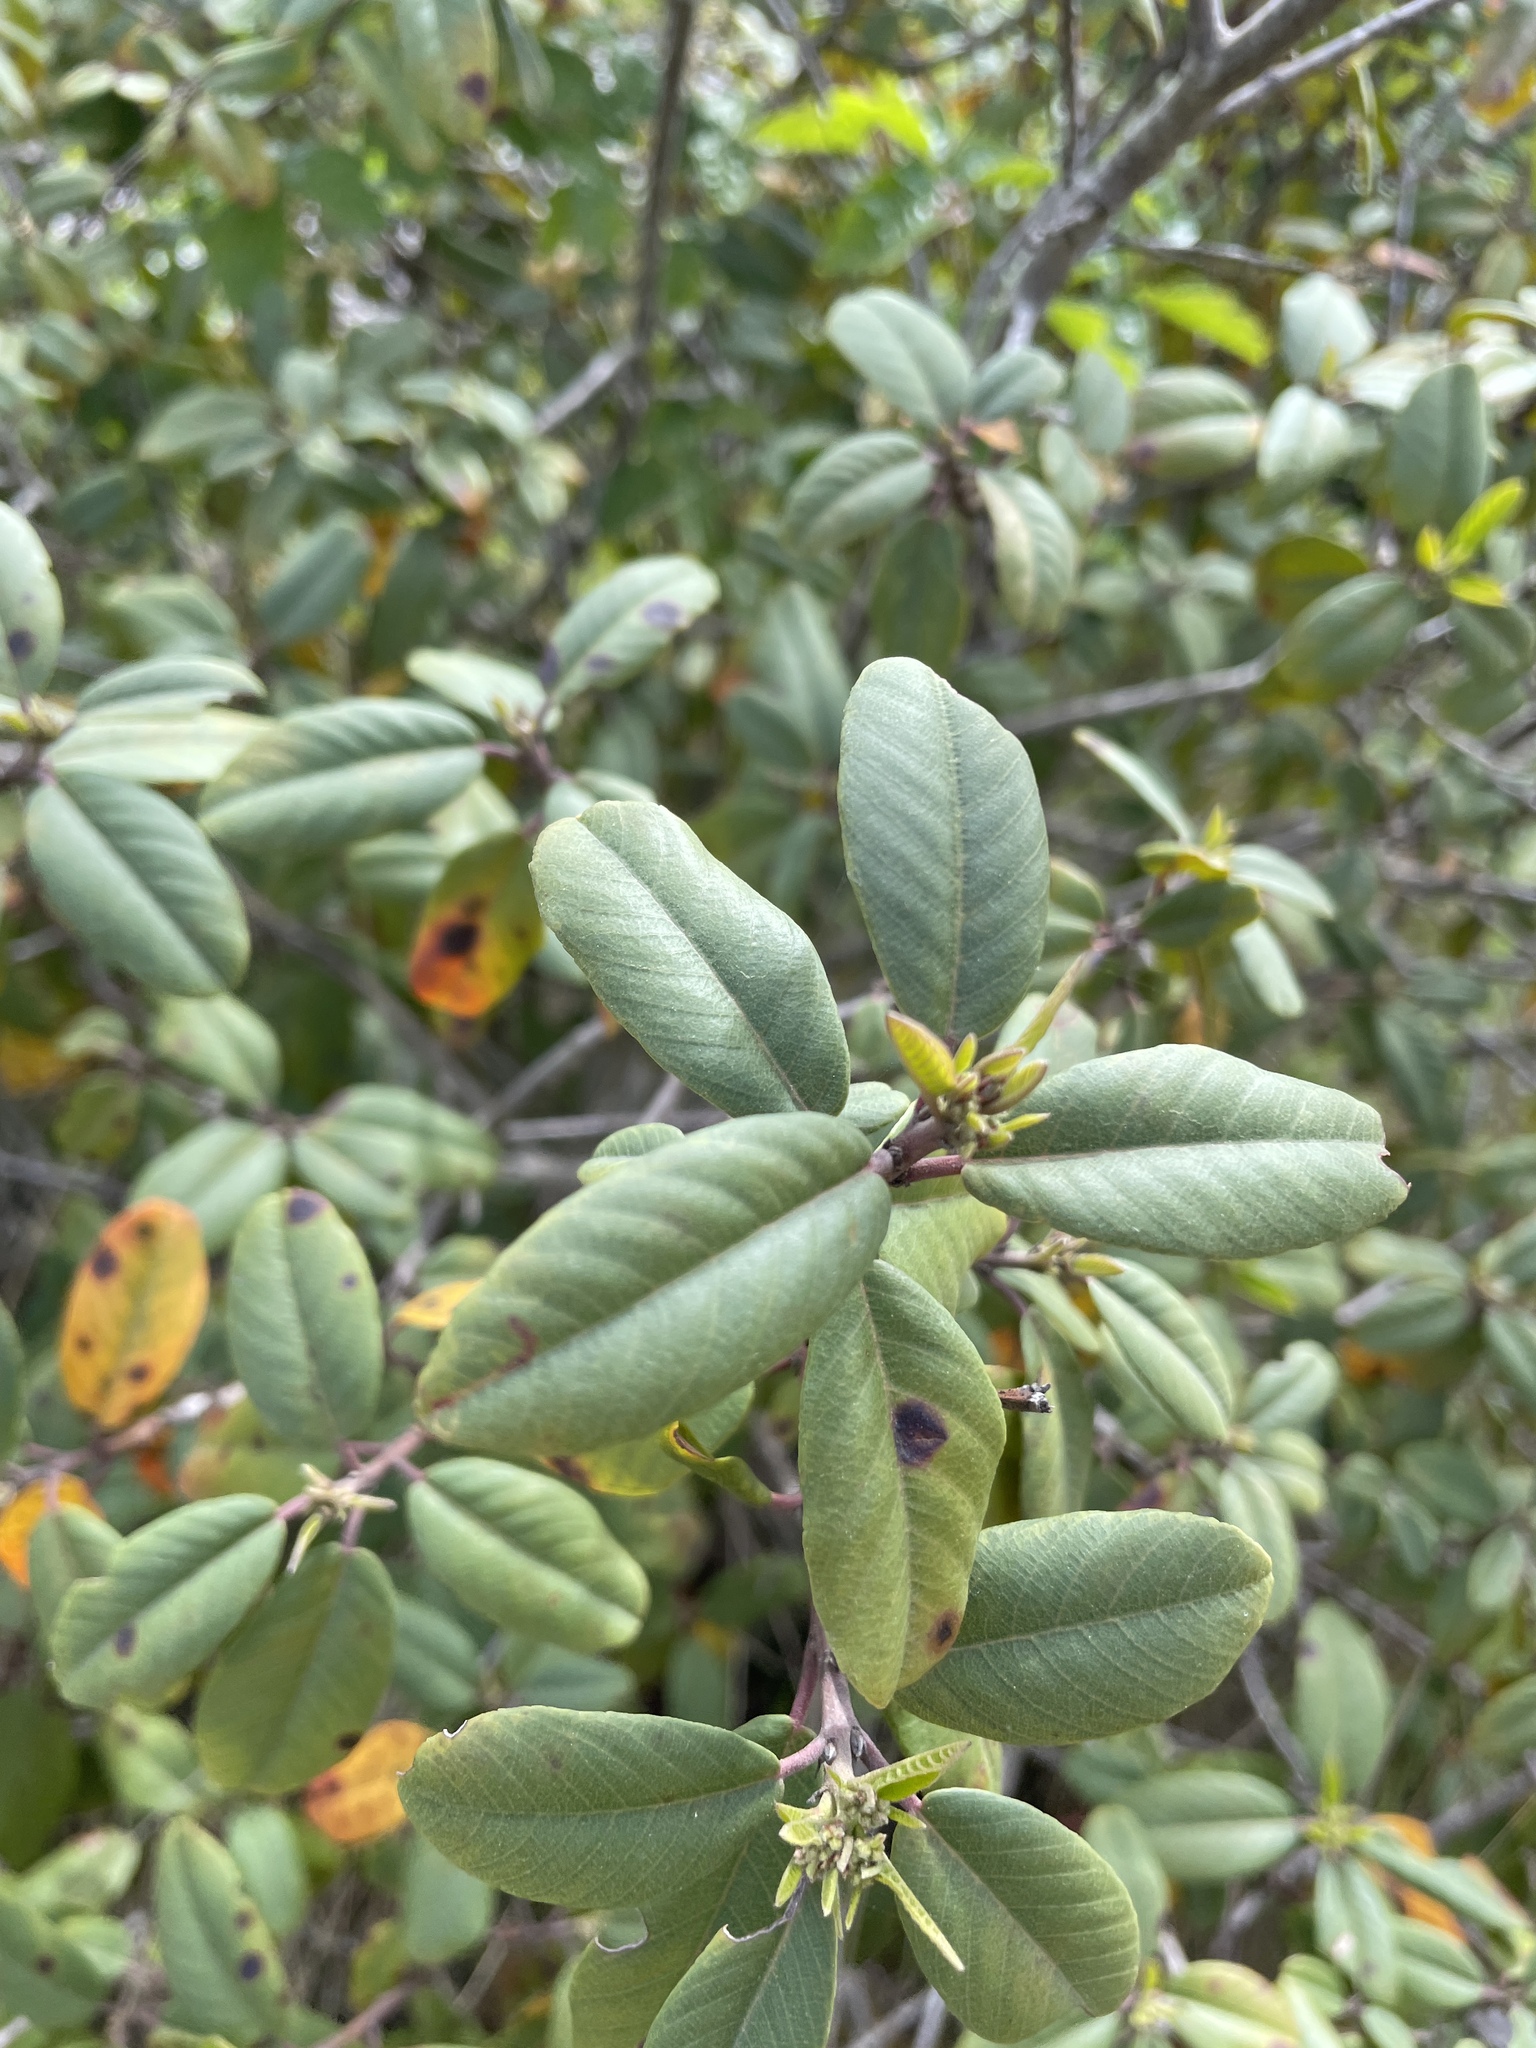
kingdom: Plantae
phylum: Tracheophyta
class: Magnoliopsida
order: Rosales
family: Rhamnaceae
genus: Frangula
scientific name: Frangula californica
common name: California buckthorn
